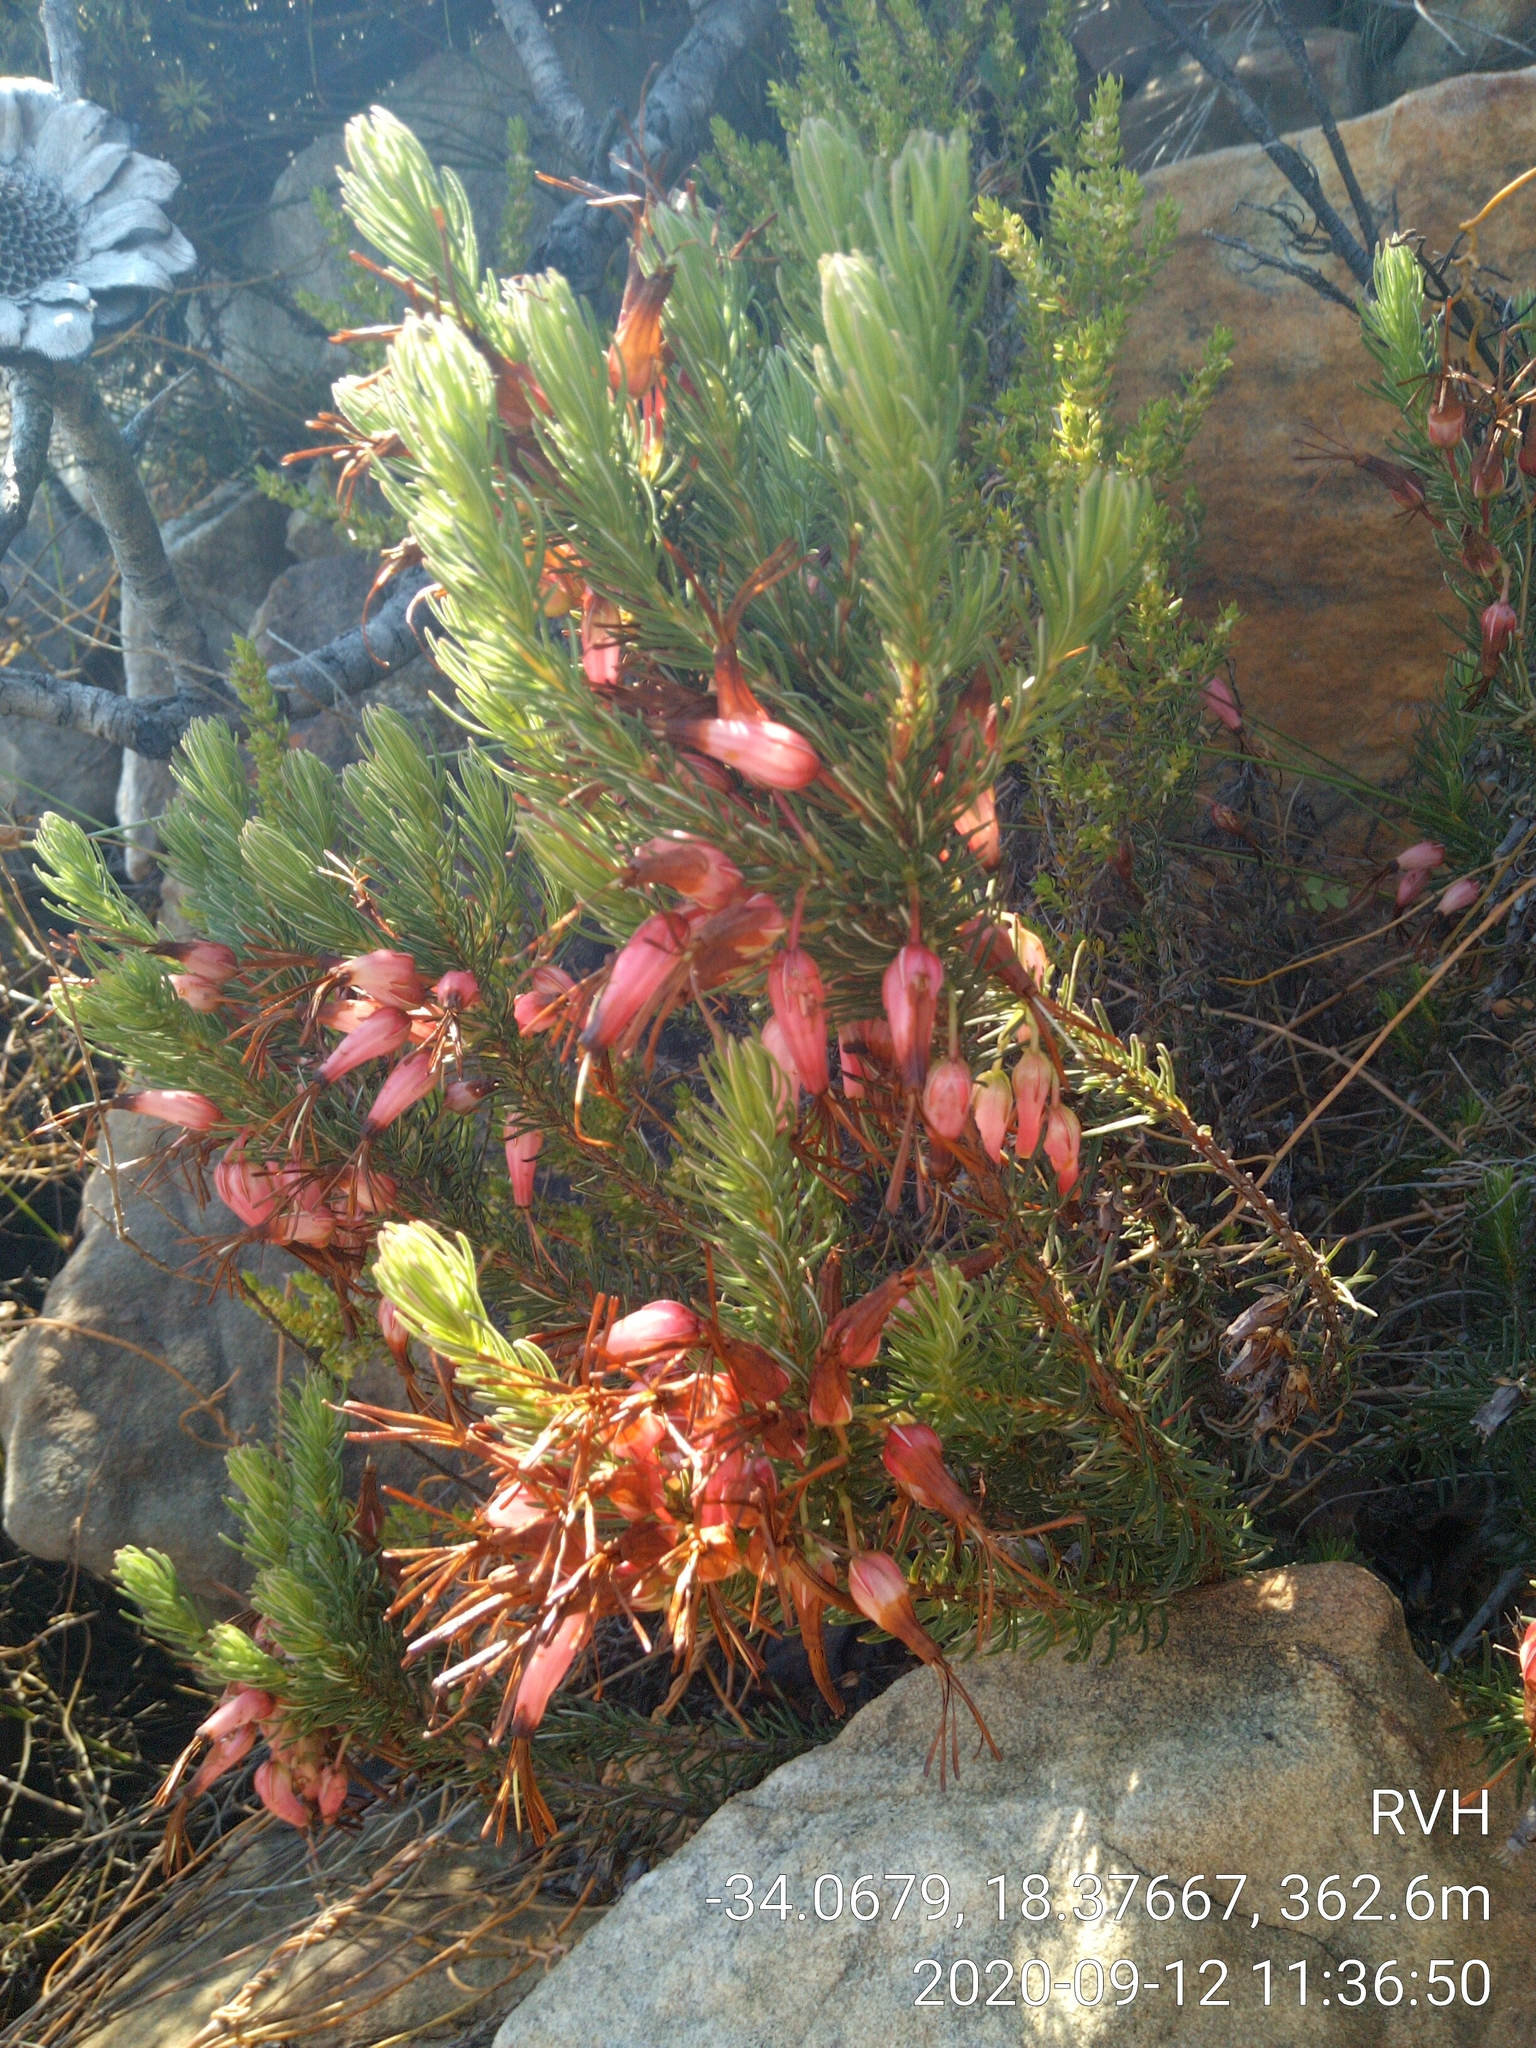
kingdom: Plantae
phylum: Tracheophyta
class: Magnoliopsida
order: Ericales
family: Ericaceae
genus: Erica
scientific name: Erica plukenetii
